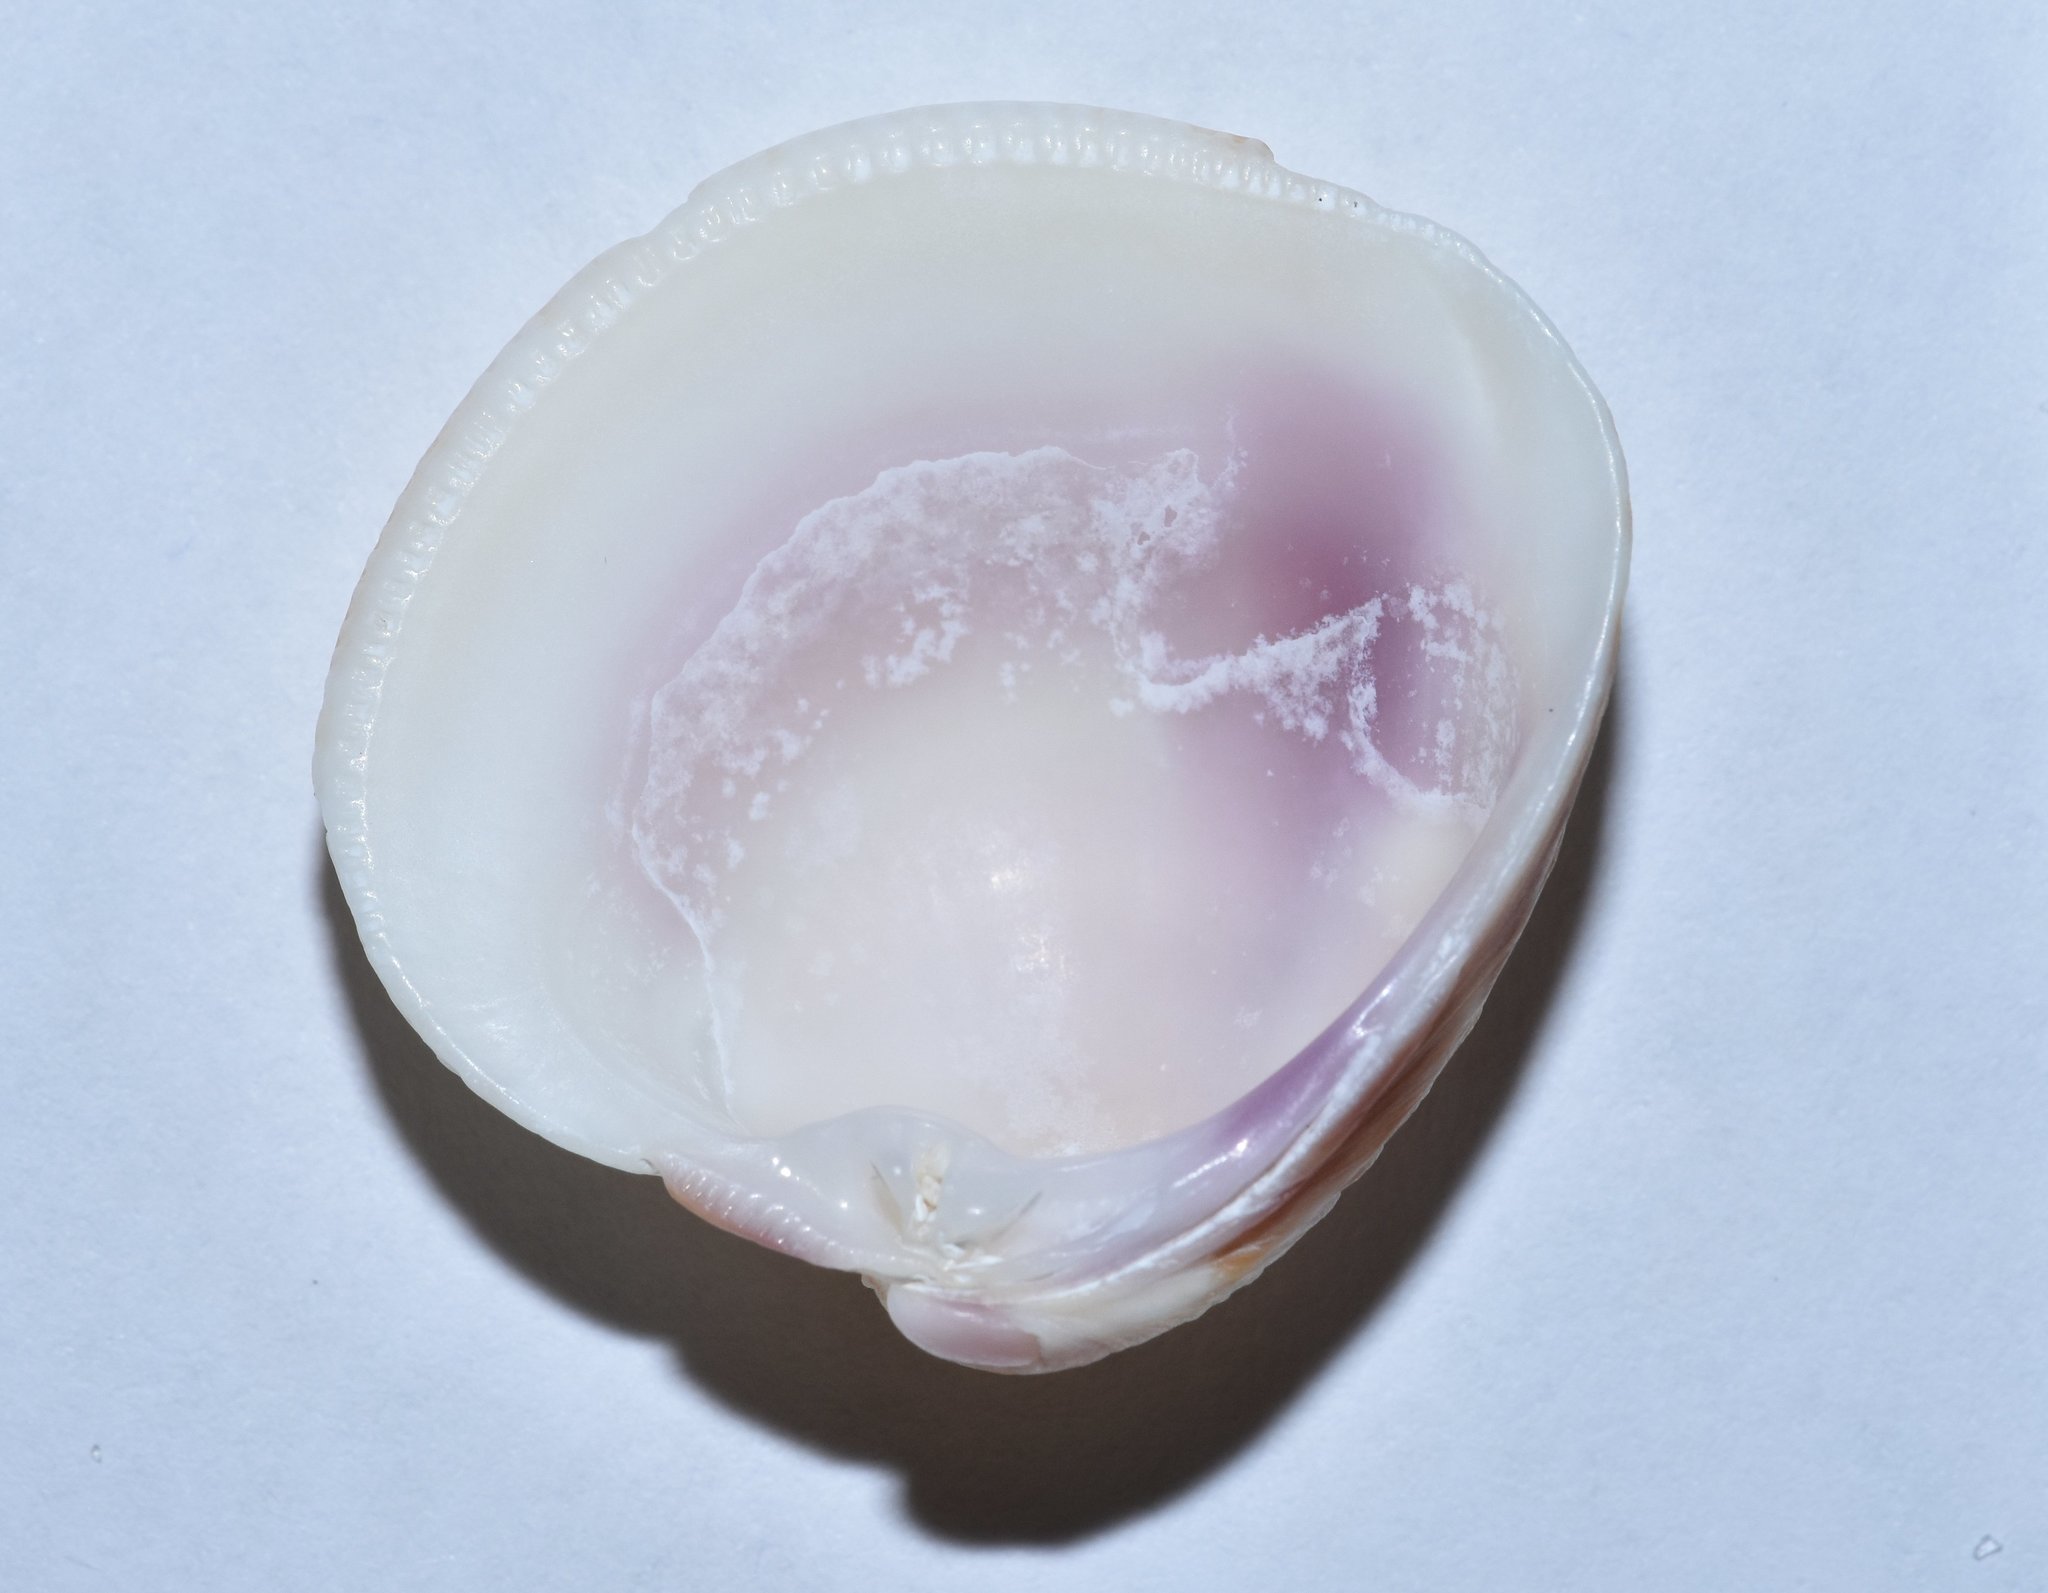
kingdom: Animalia
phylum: Mollusca
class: Bivalvia
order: Venerida
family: Veneridae
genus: Chionopsis
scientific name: Chionopsis intapurpurea
